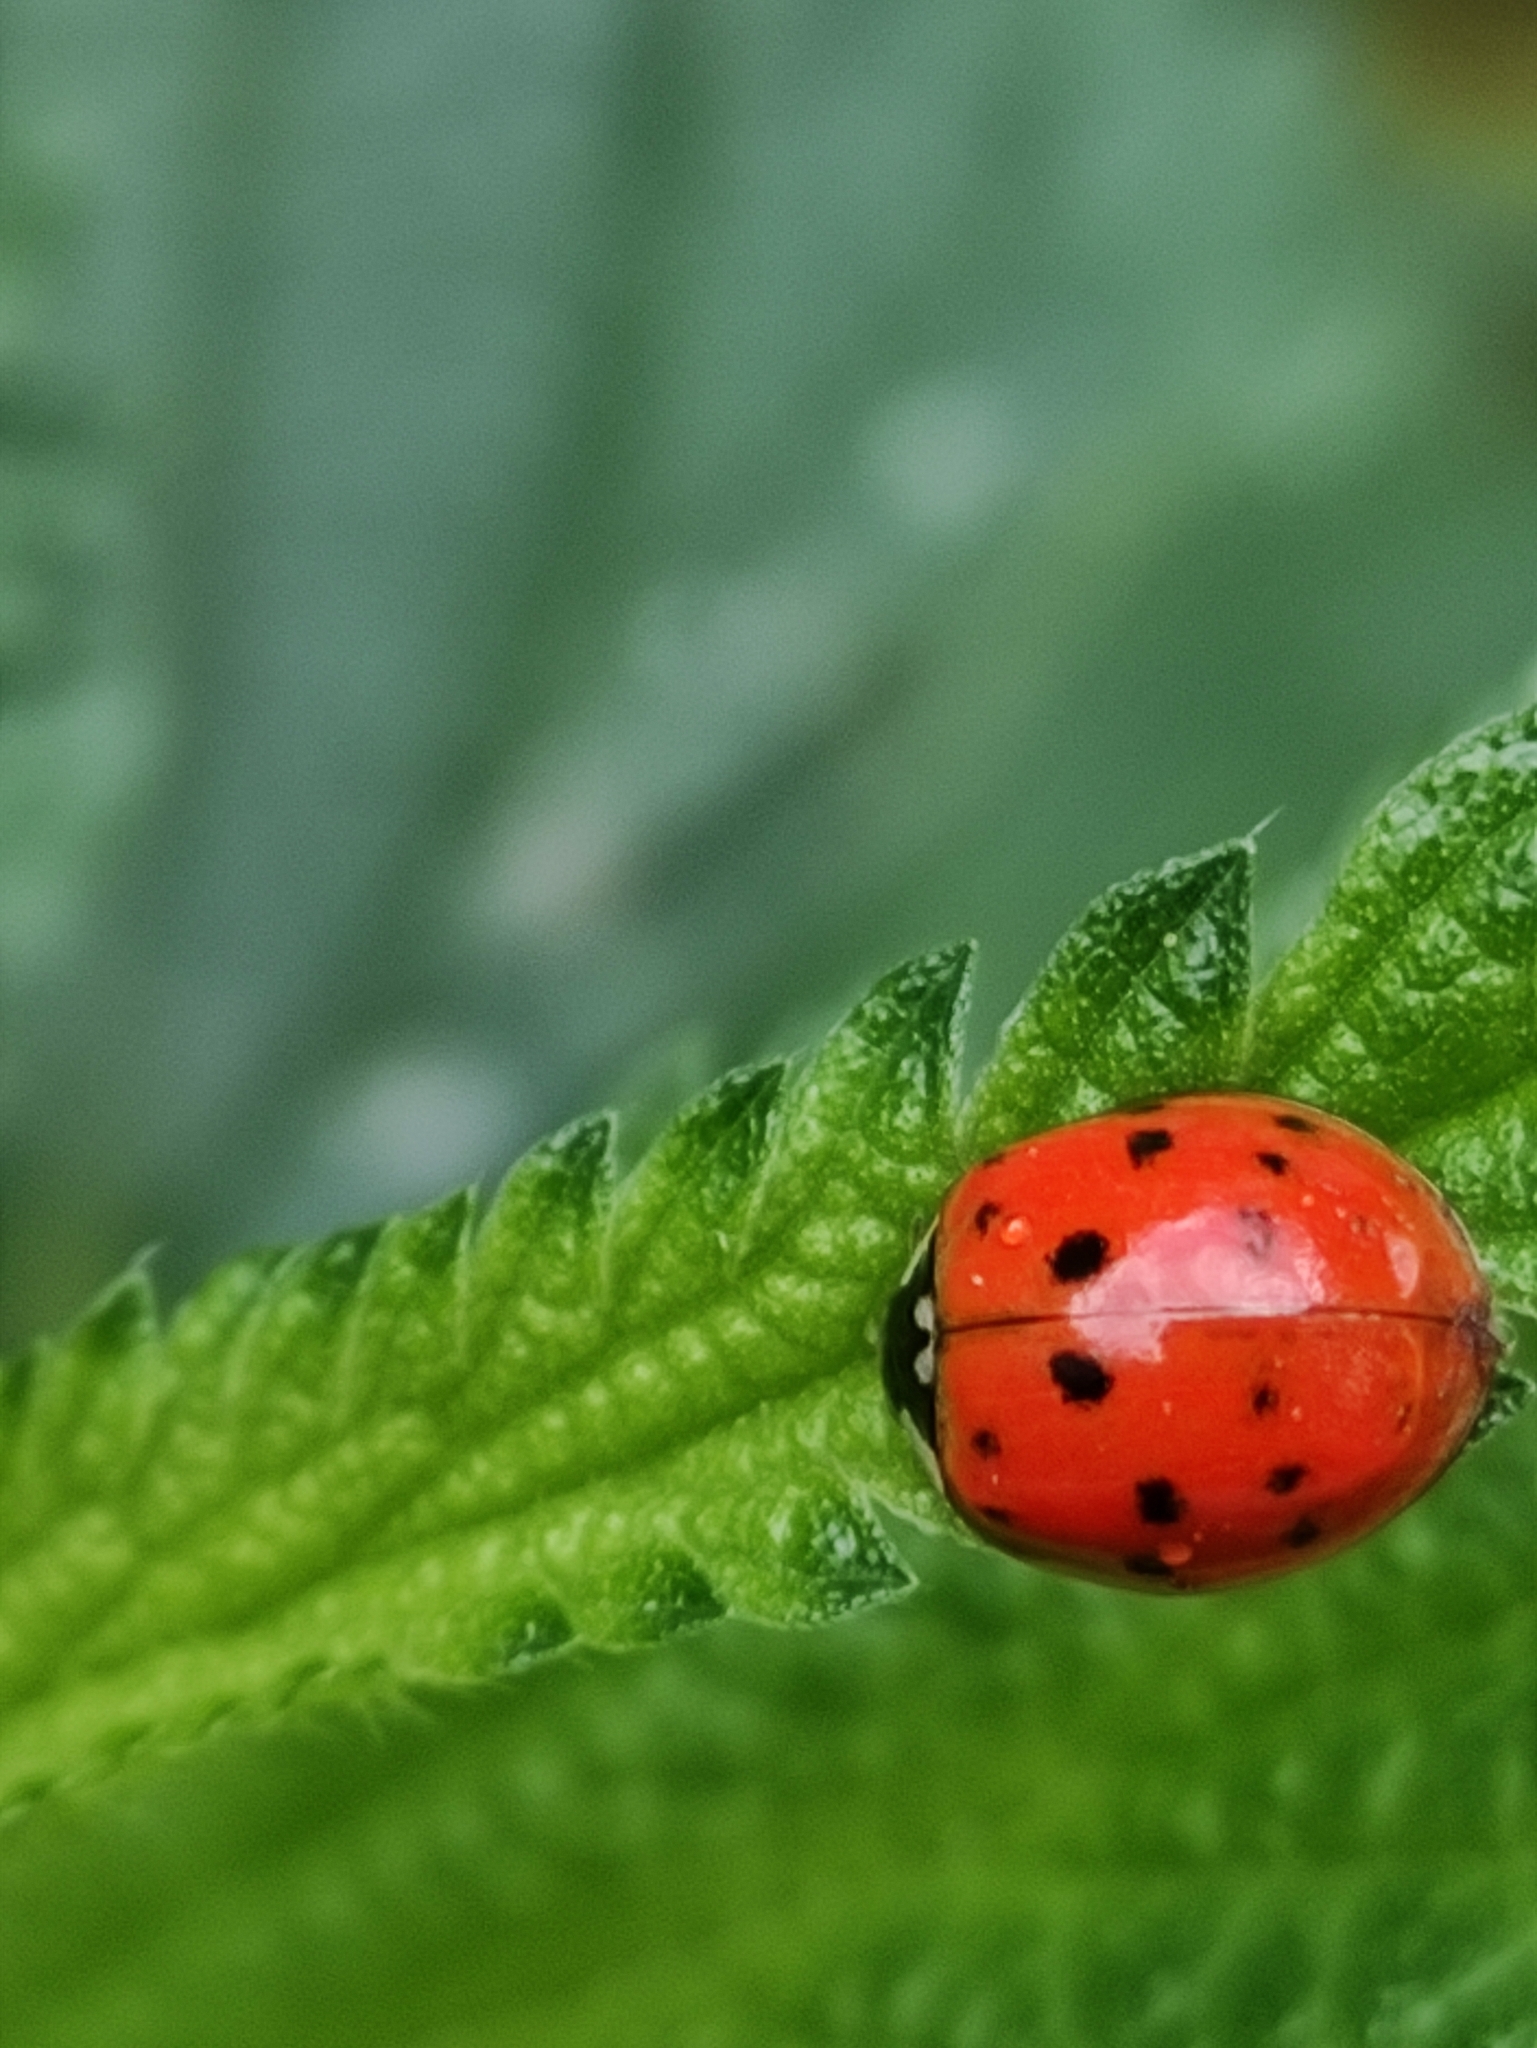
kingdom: Animalia
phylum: Arthropoda
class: Insecta
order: Coleoptera
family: Coccinellidae
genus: Harmonia
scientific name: Harmonia axyridis
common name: Harlequin ladybird
